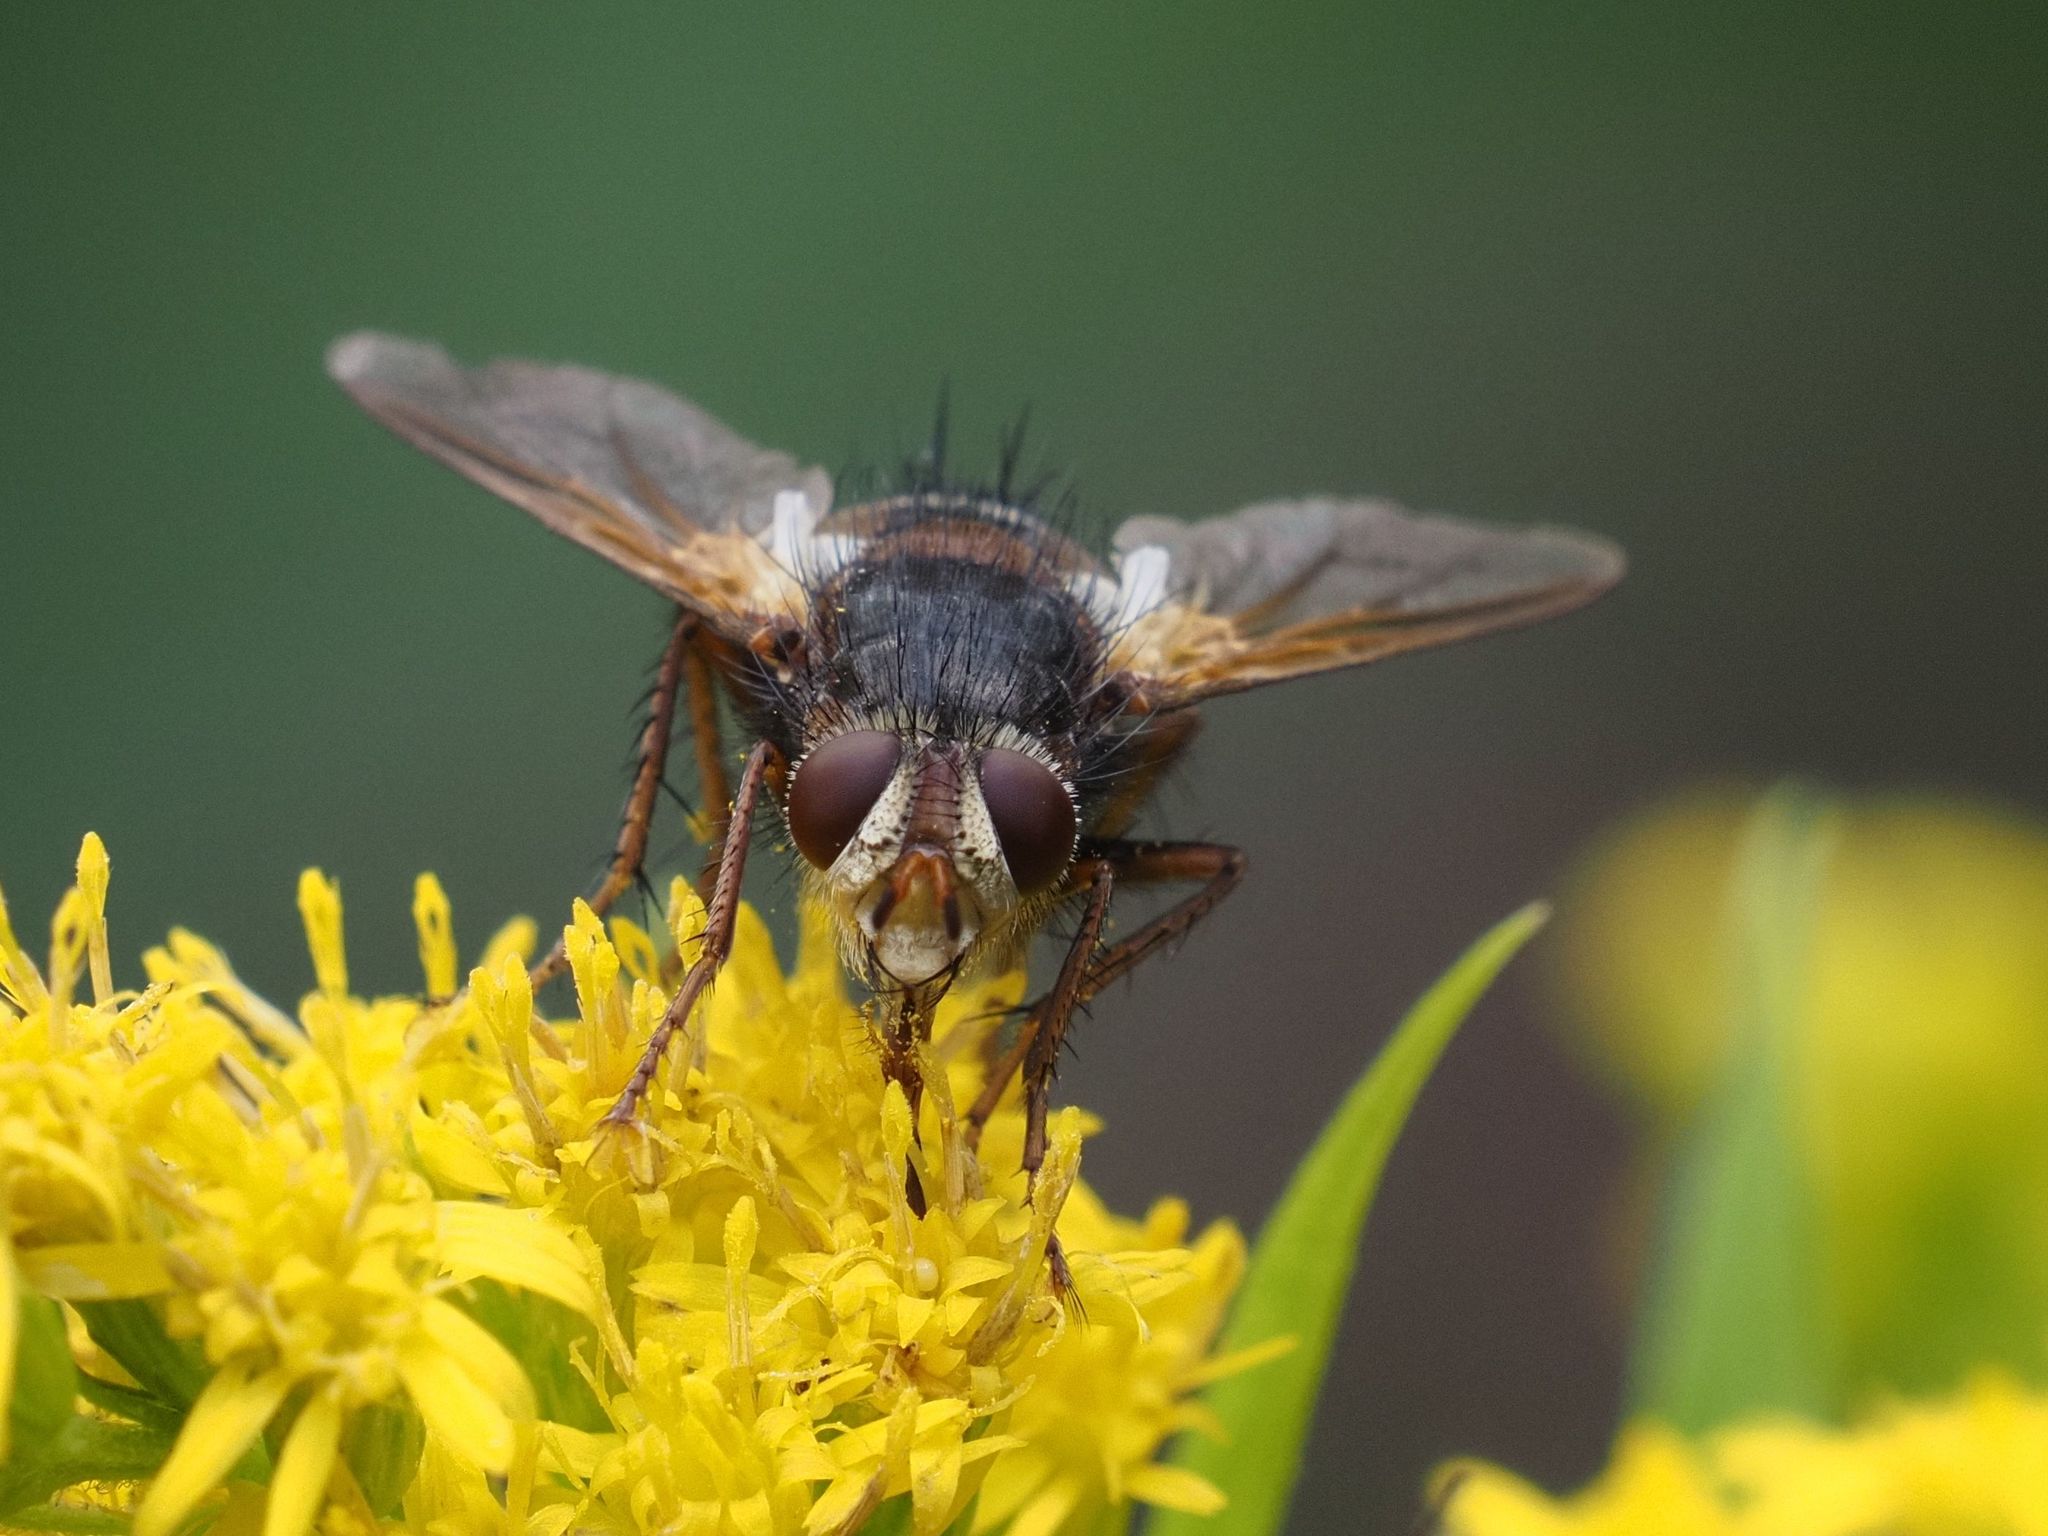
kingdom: Animalia
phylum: Arthropoda
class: Insecta
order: Diptera
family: Tachinidae
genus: Tachina
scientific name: Tachina fera
